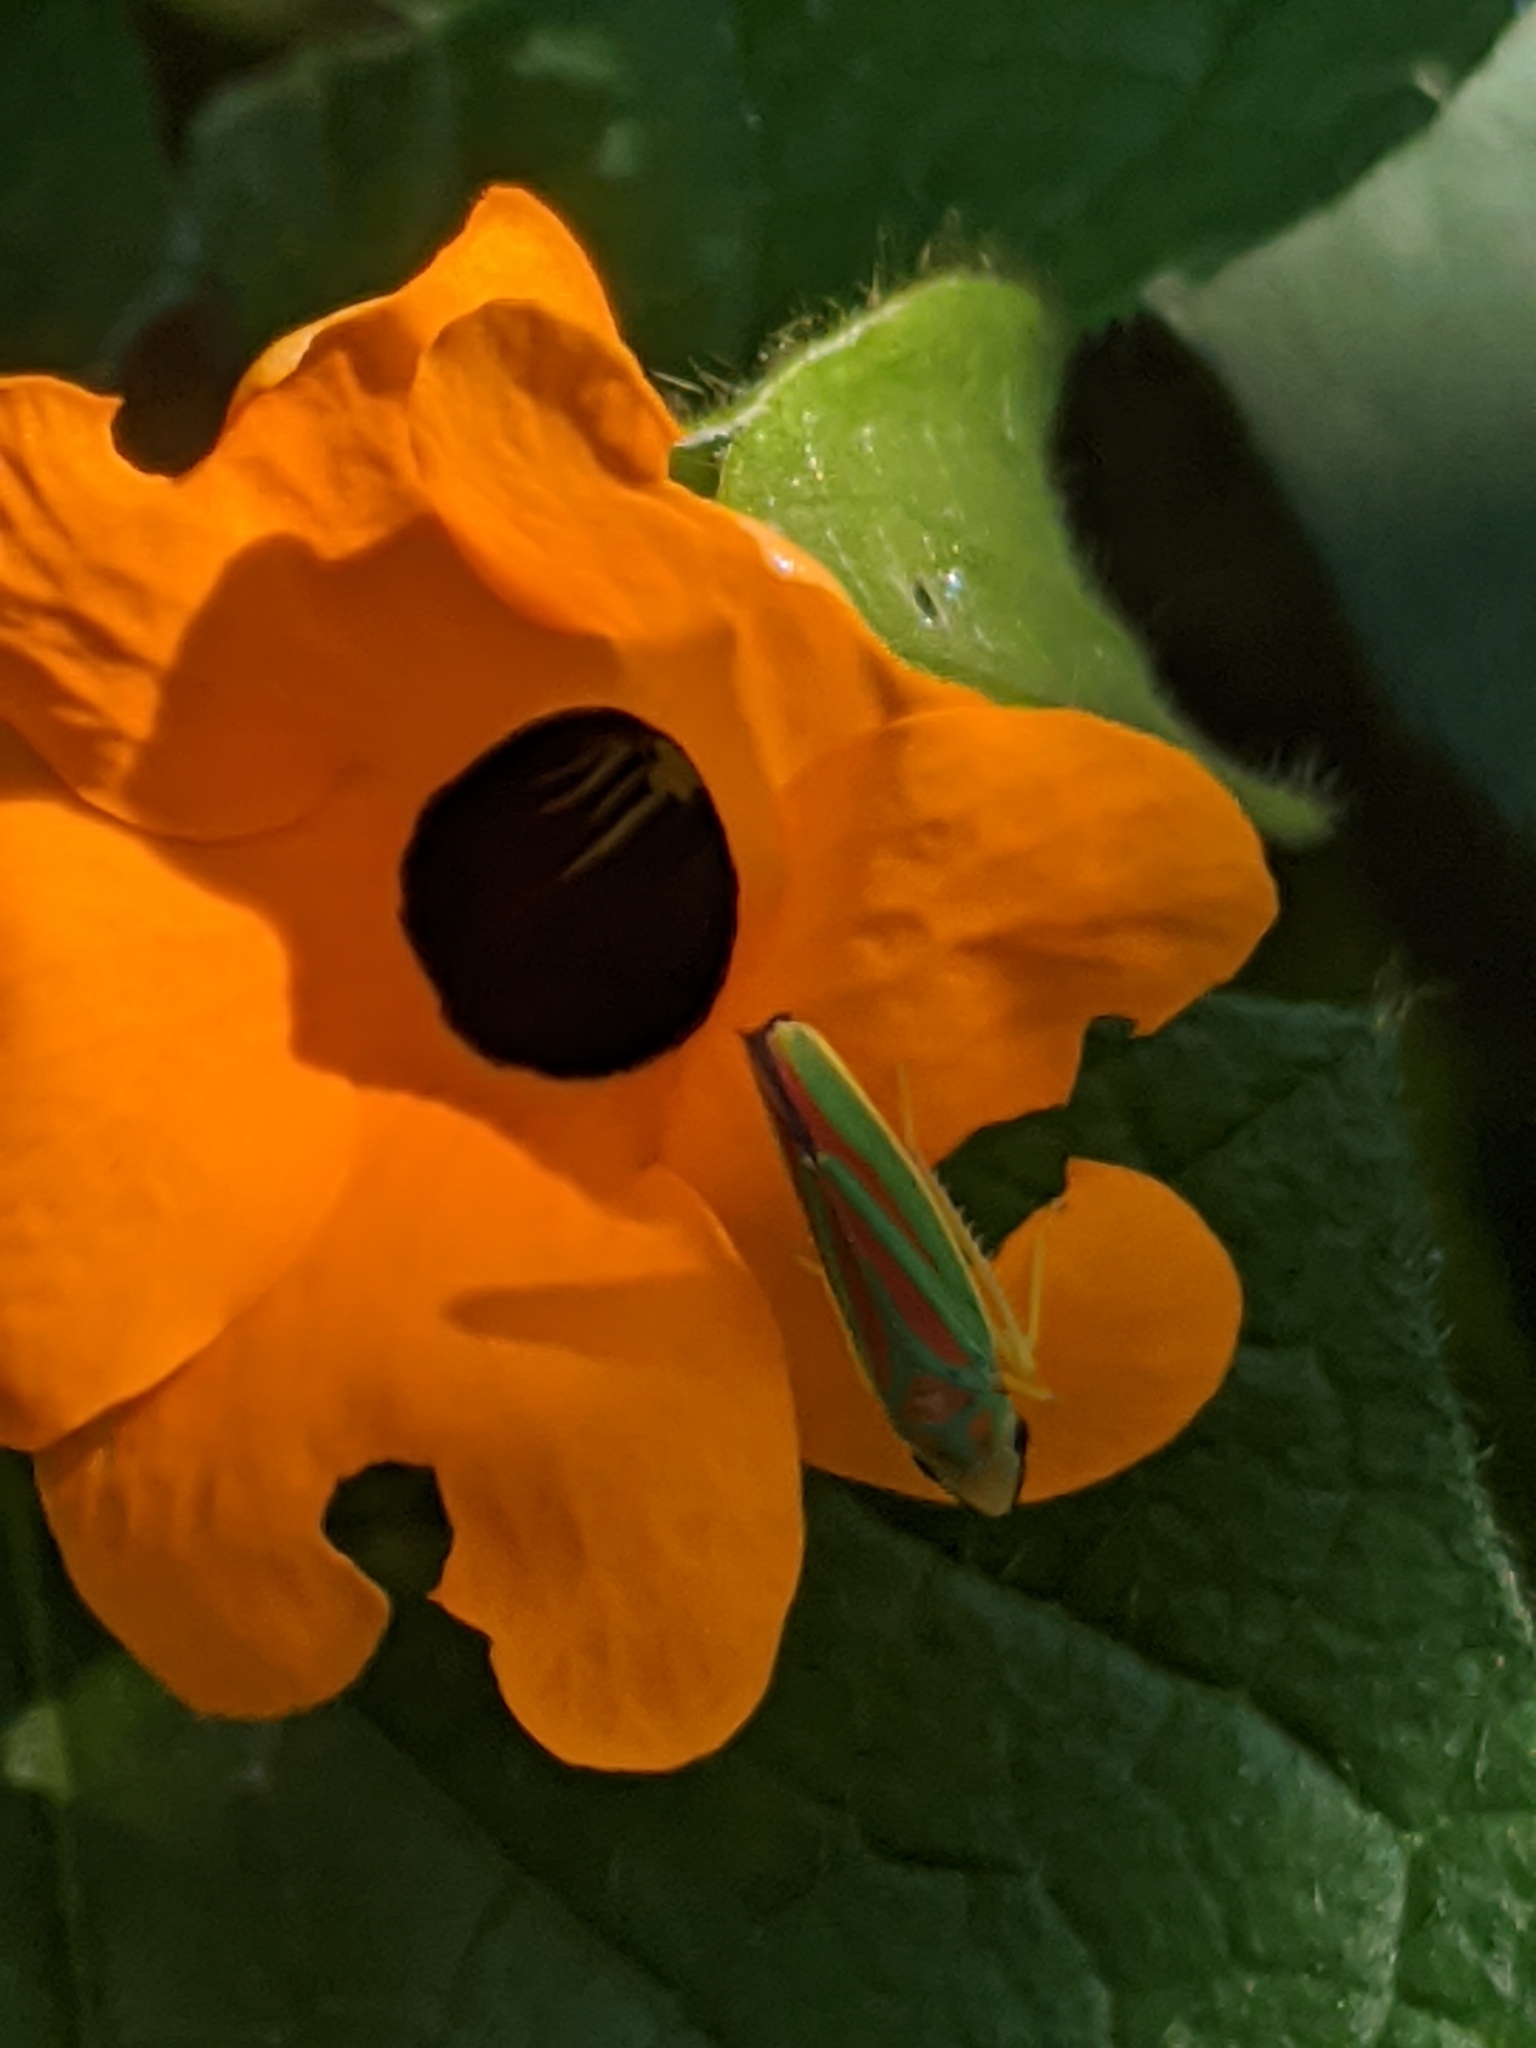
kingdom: Animalia
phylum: Arthropoda
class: Insecta
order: Hemiptera
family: Cicadellidae
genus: Graphocephala
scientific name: Graphocephala fennahi
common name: Rhododendron leafhopper
